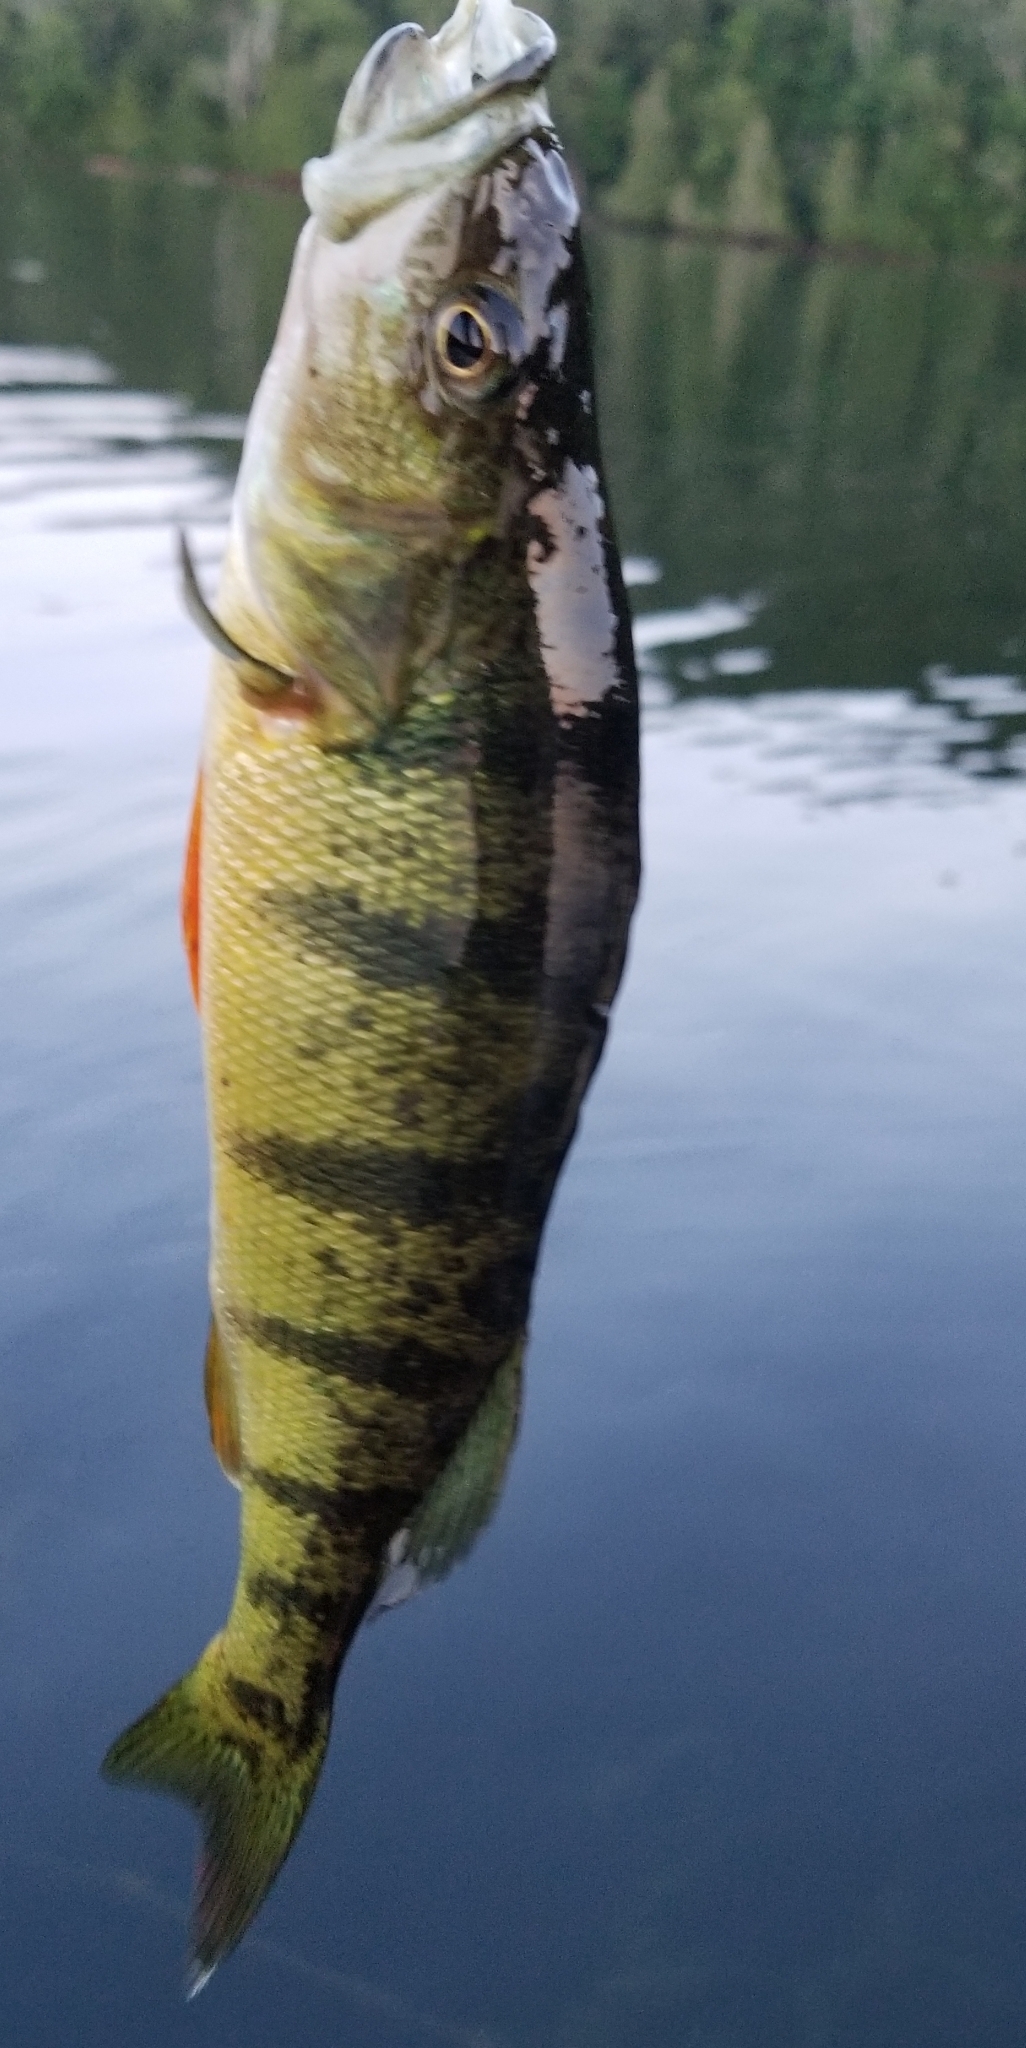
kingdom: Animalia
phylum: Chordata
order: Perciformes
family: Percidae
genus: Perca
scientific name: Perca flavescens
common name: Yellow perch
